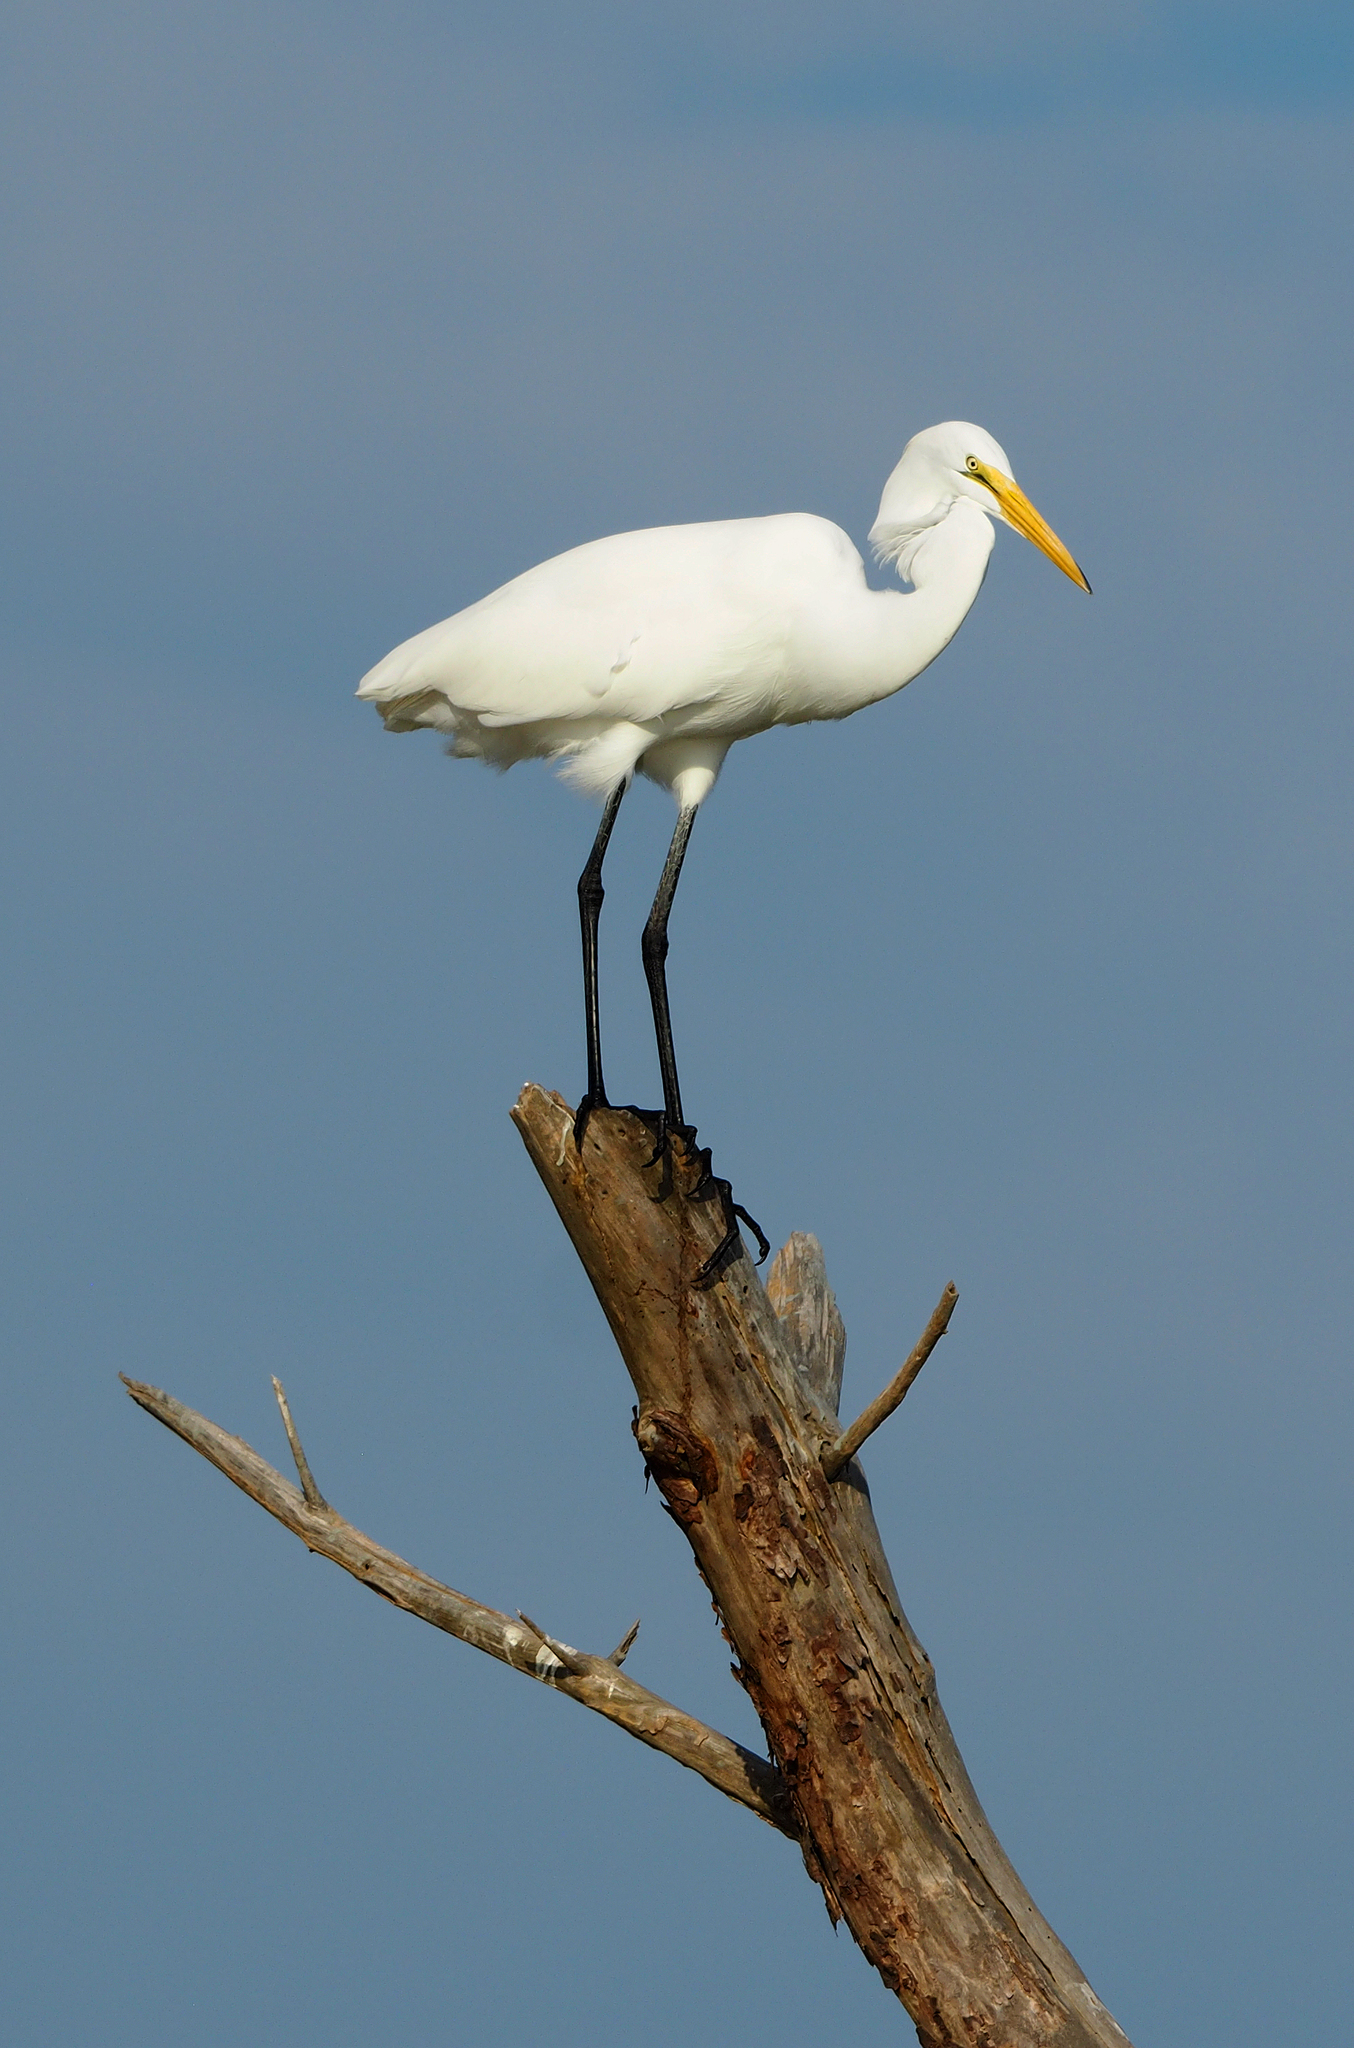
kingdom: Animalia
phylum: Chordata
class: Aves
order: Pelecaniformes
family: Ardeidae
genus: Ardea
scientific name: Ardea alba
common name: Great egret
